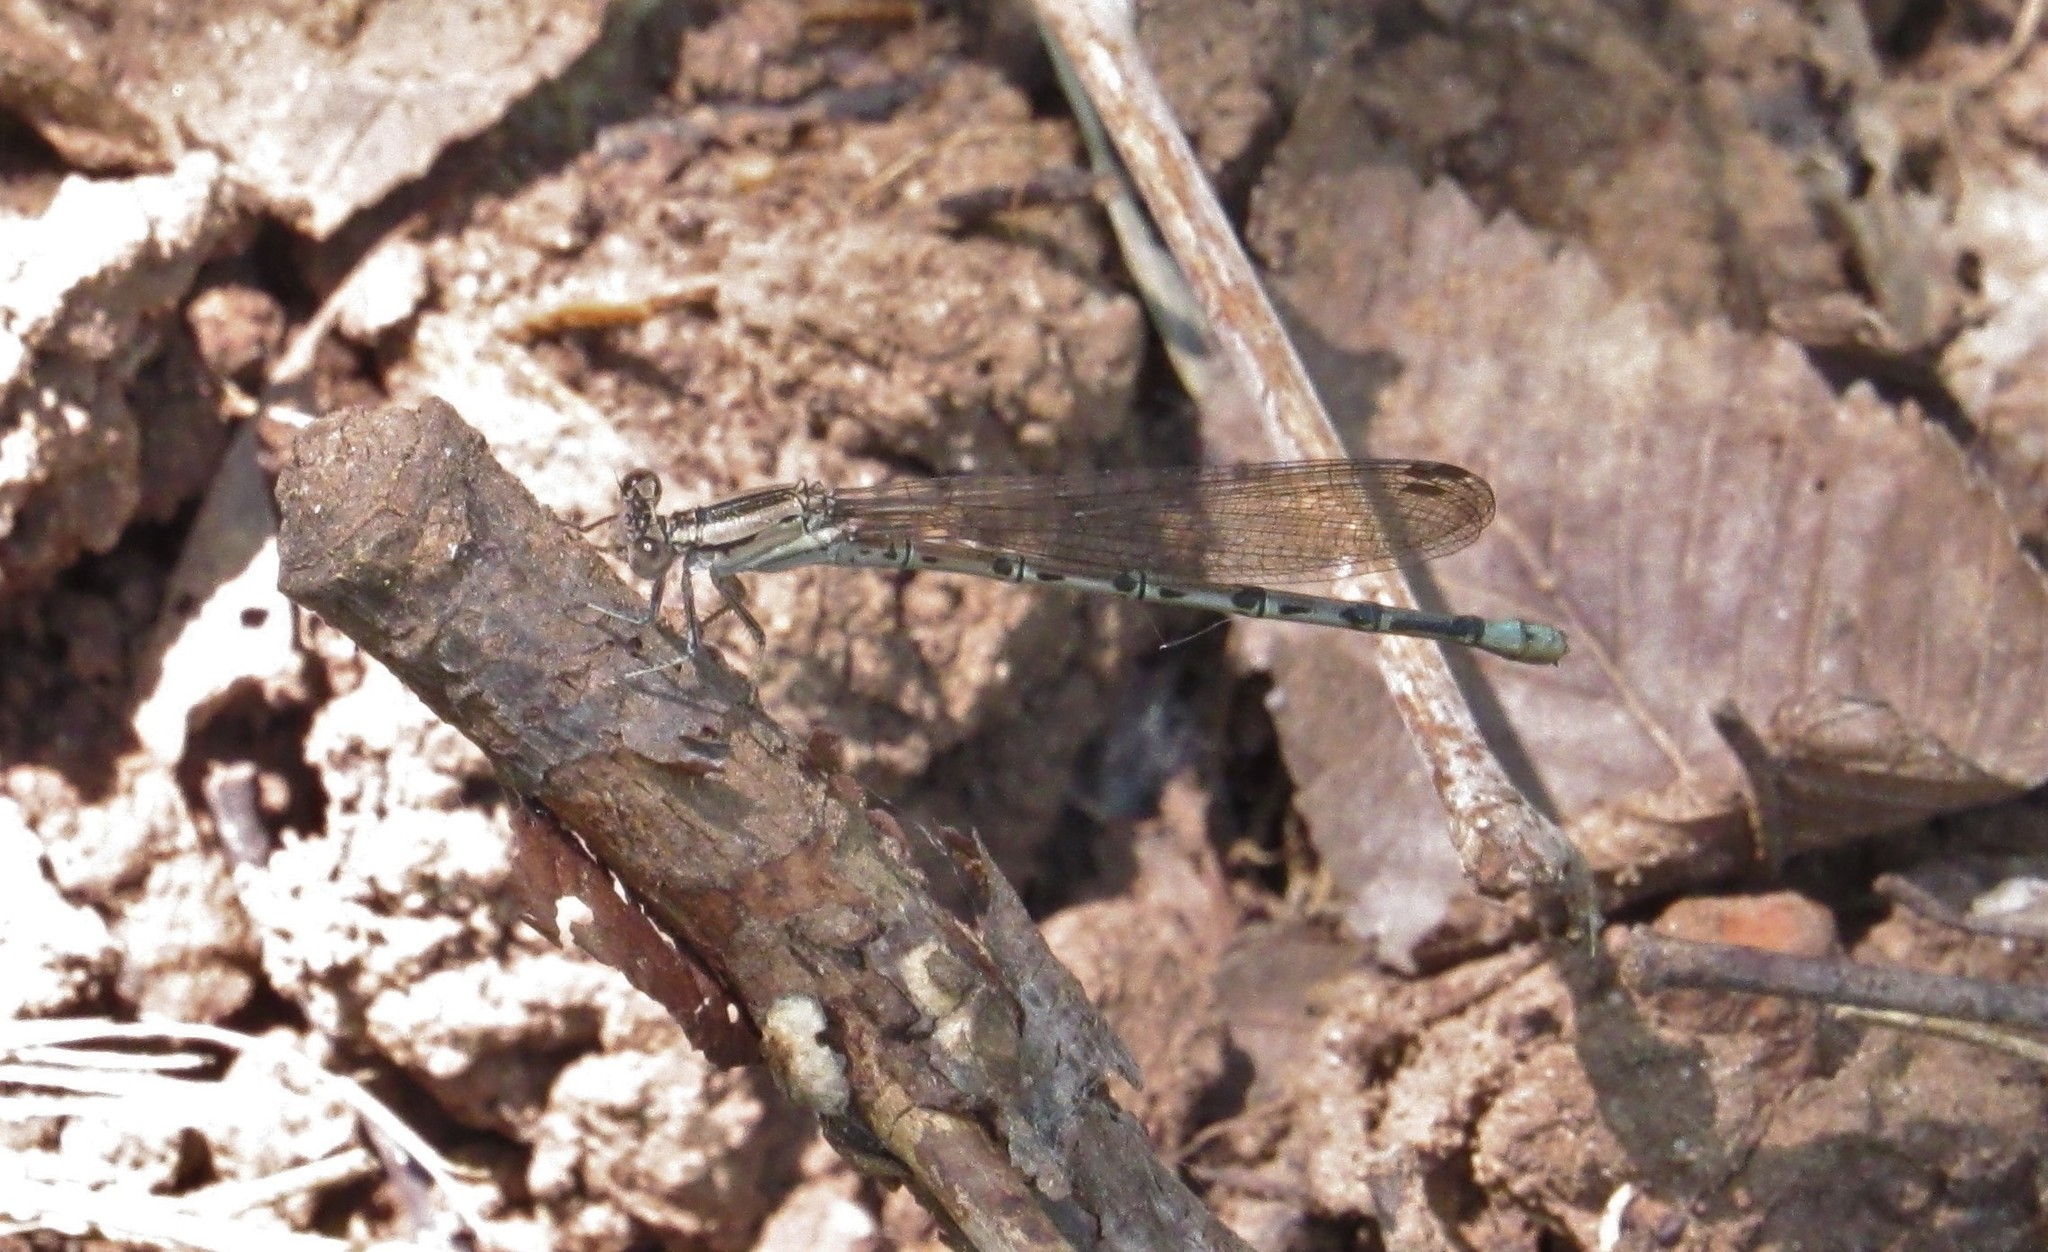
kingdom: Animalia
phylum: Arthropoda
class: Insecta
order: Odonata
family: Coenagrionidae
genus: Argia
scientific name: Argia funebris
